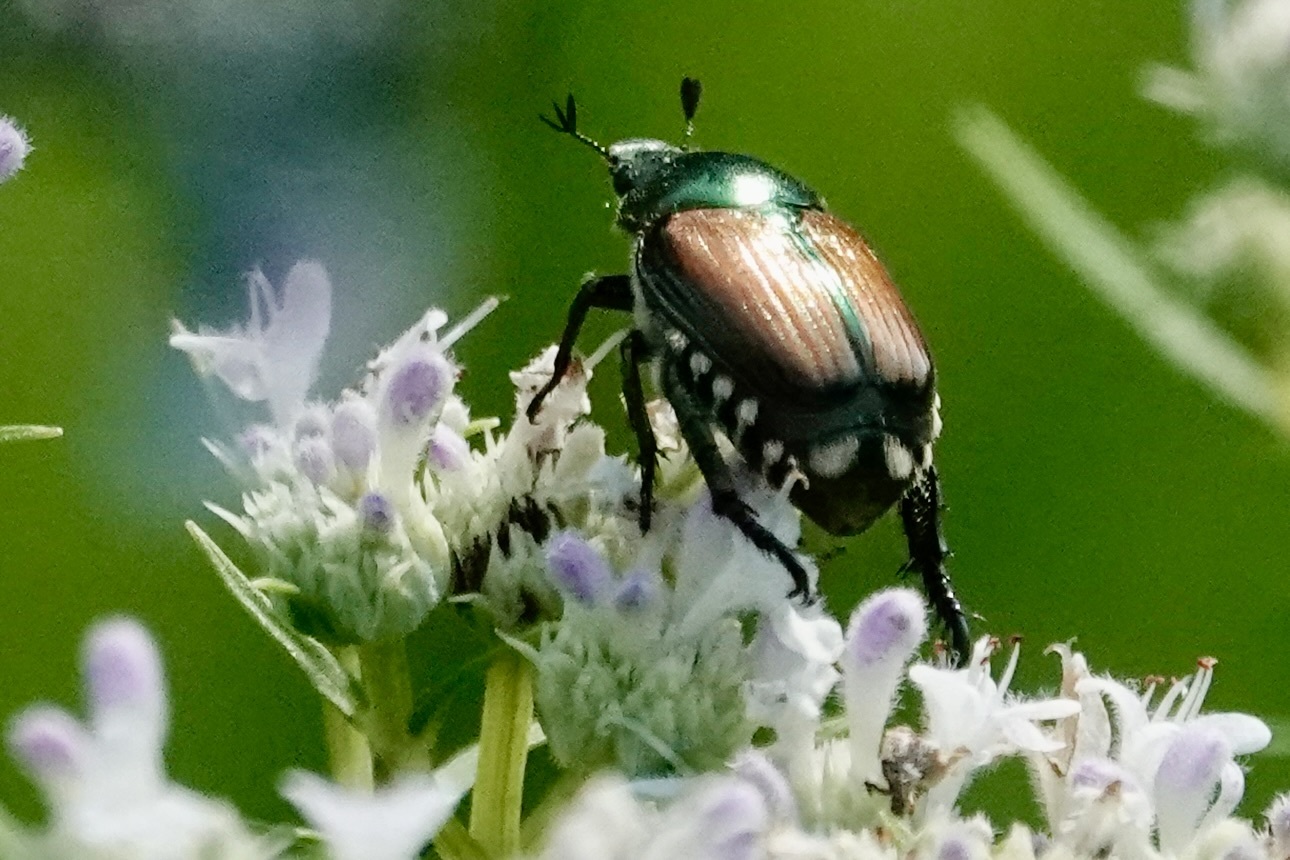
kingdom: Animalia
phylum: Arthropoda
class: Insecta
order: Coleoptera
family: Scarabaeidae
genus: Popillia
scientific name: Popillia japonica
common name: Japanese beetle
